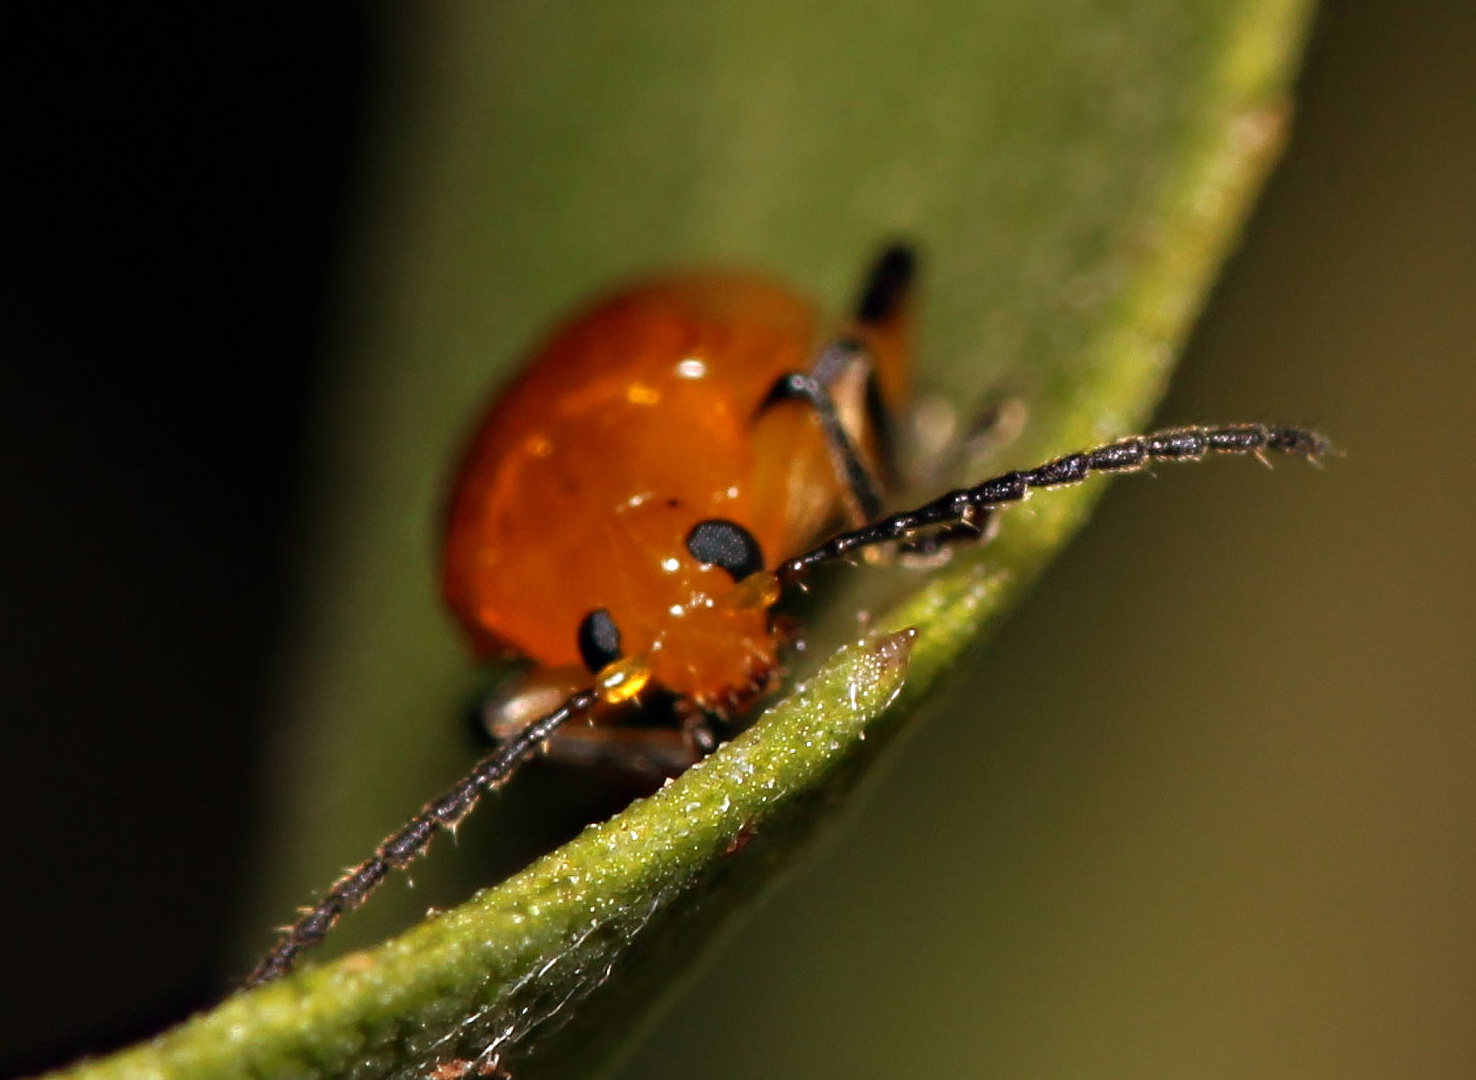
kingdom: Animalia
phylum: Arthropoda
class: Insecta
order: Coleoptera
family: Chrysomelidae
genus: Parchicola
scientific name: Parchicola
